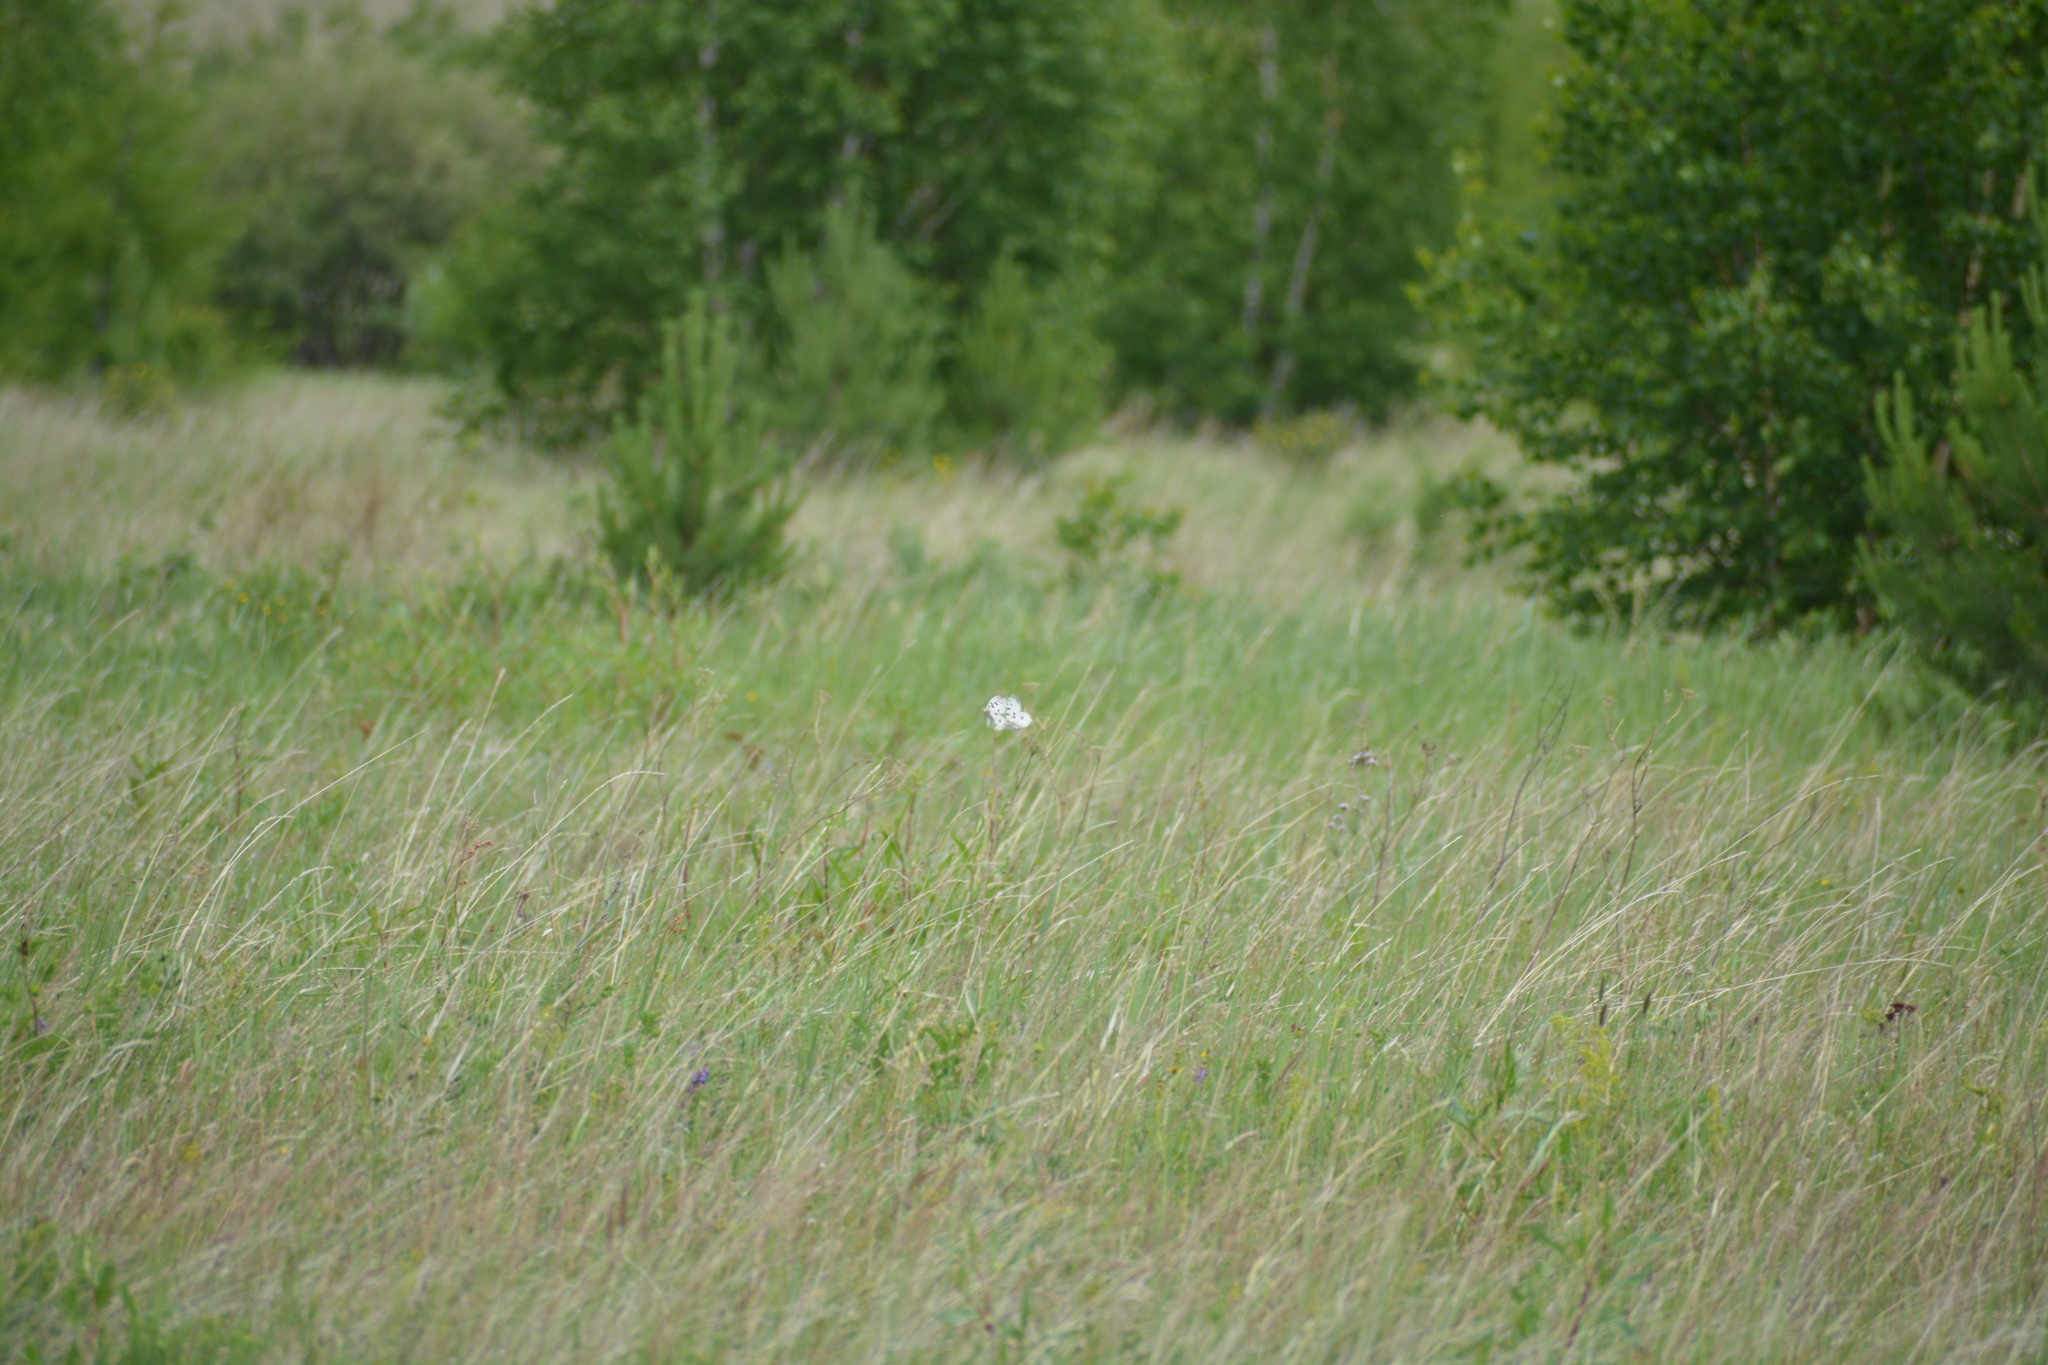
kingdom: Animalia
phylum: Arthropoda
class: Insecta
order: Lepidoptera
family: Papilionidae
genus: Parnassius
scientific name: Parnassius apollo
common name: Apollo
